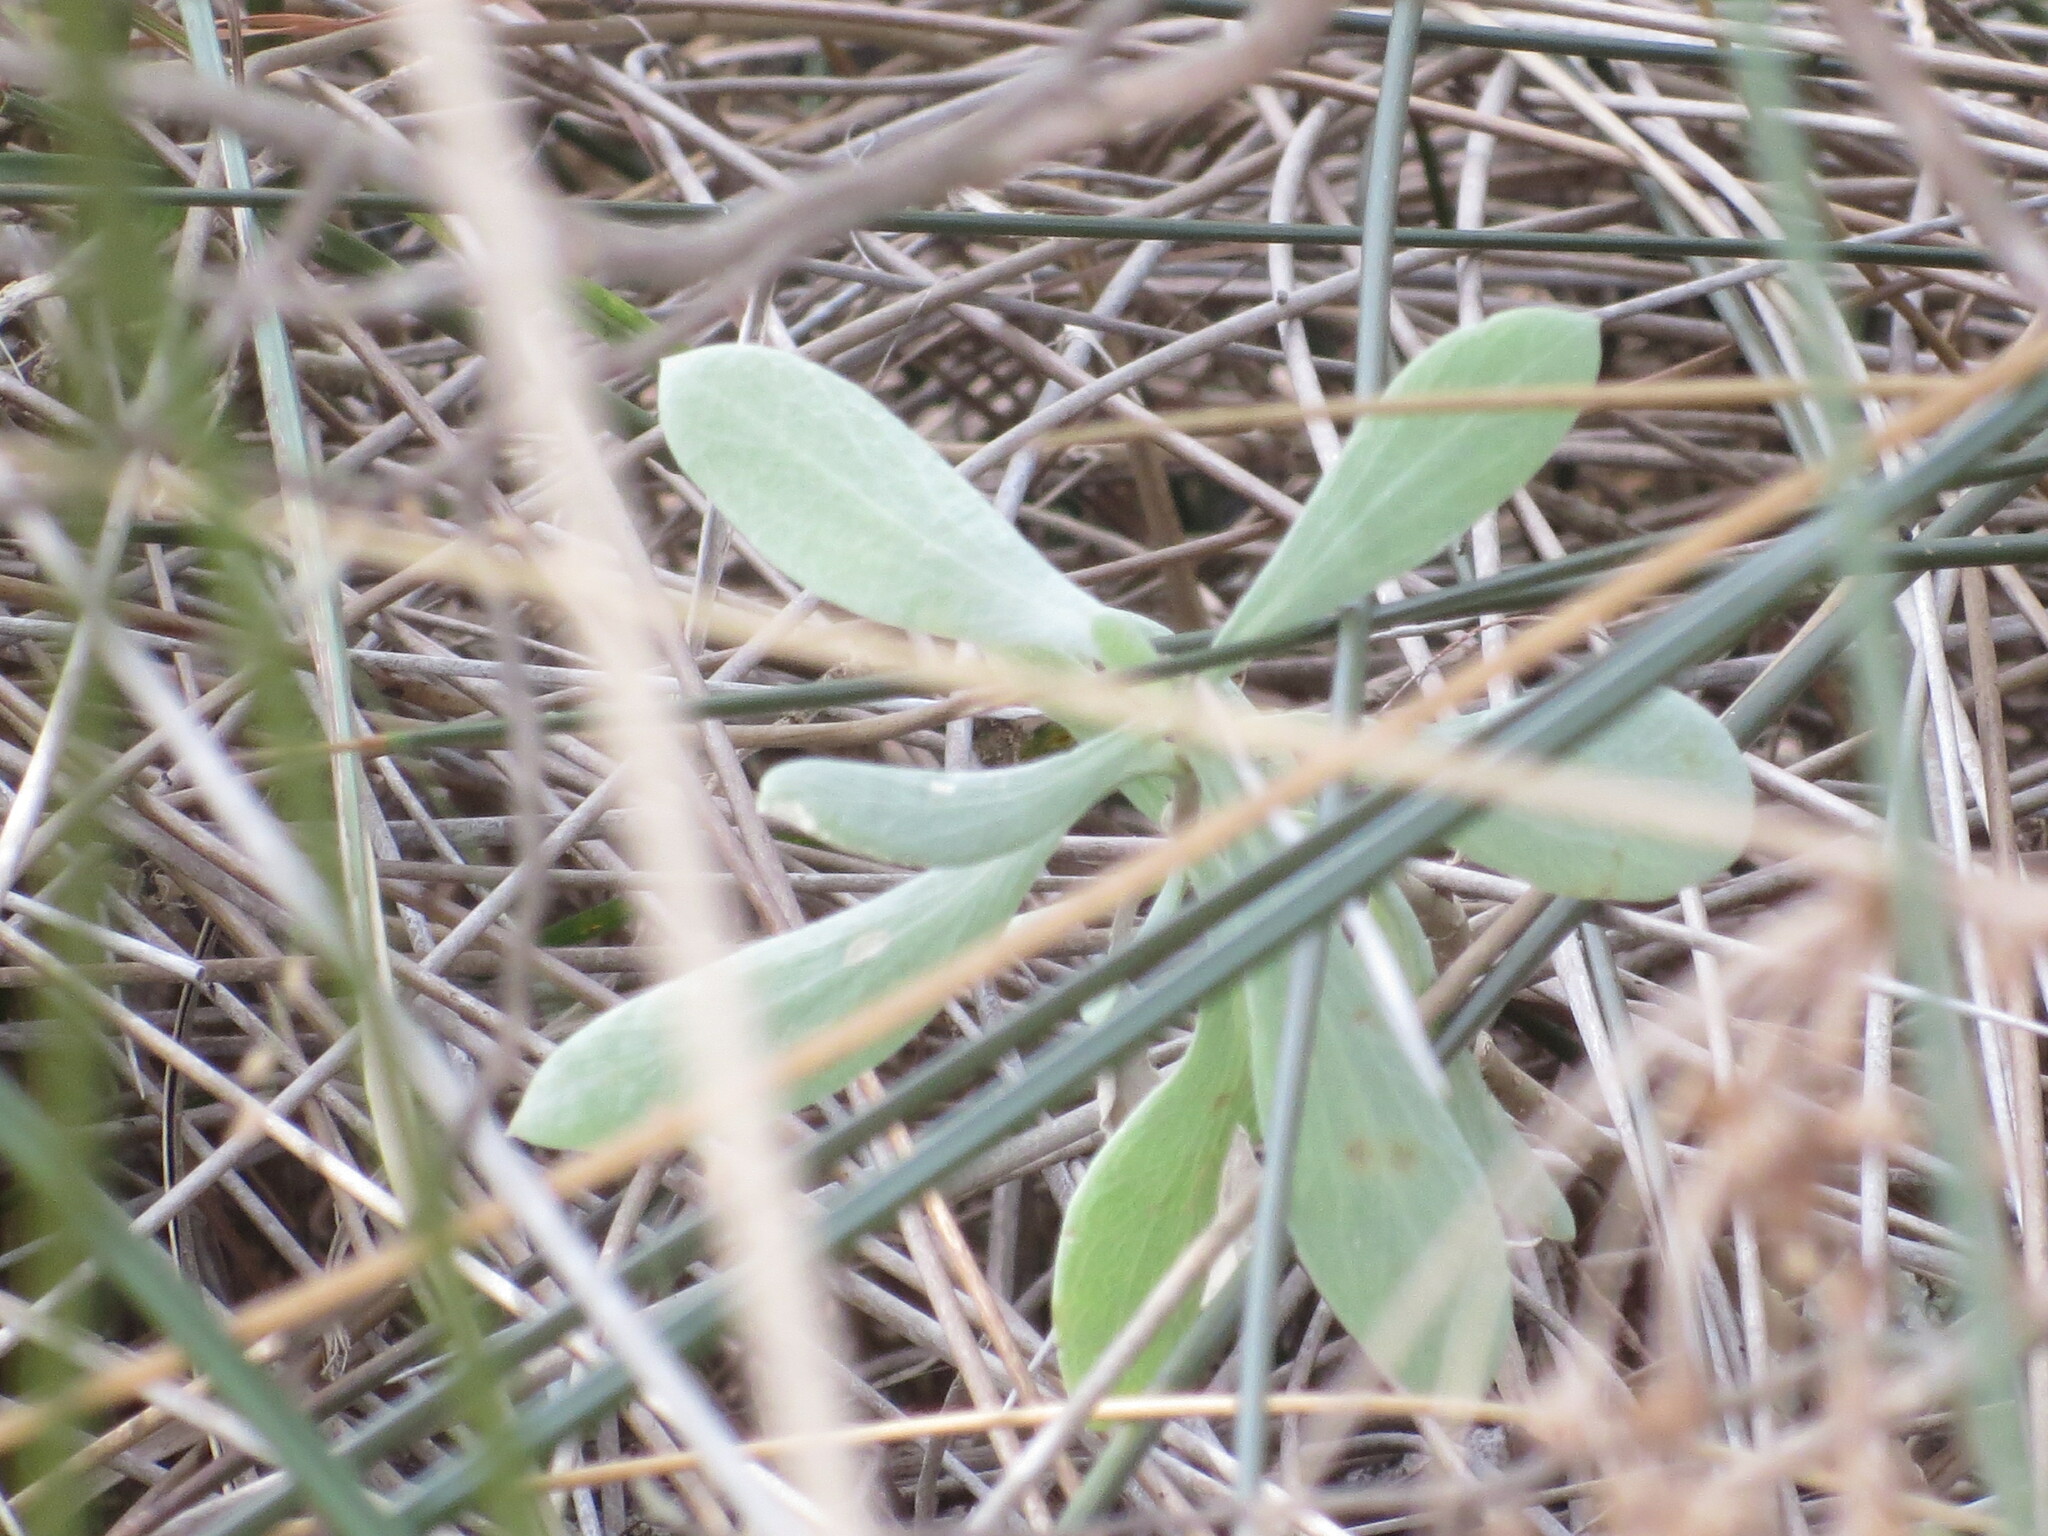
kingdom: Plantae
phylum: Tracheophyta
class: Magnoliopsida
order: Asterales
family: Asteraceae
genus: Borrichia
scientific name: Borrichia frutescens
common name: Sea oxeye
